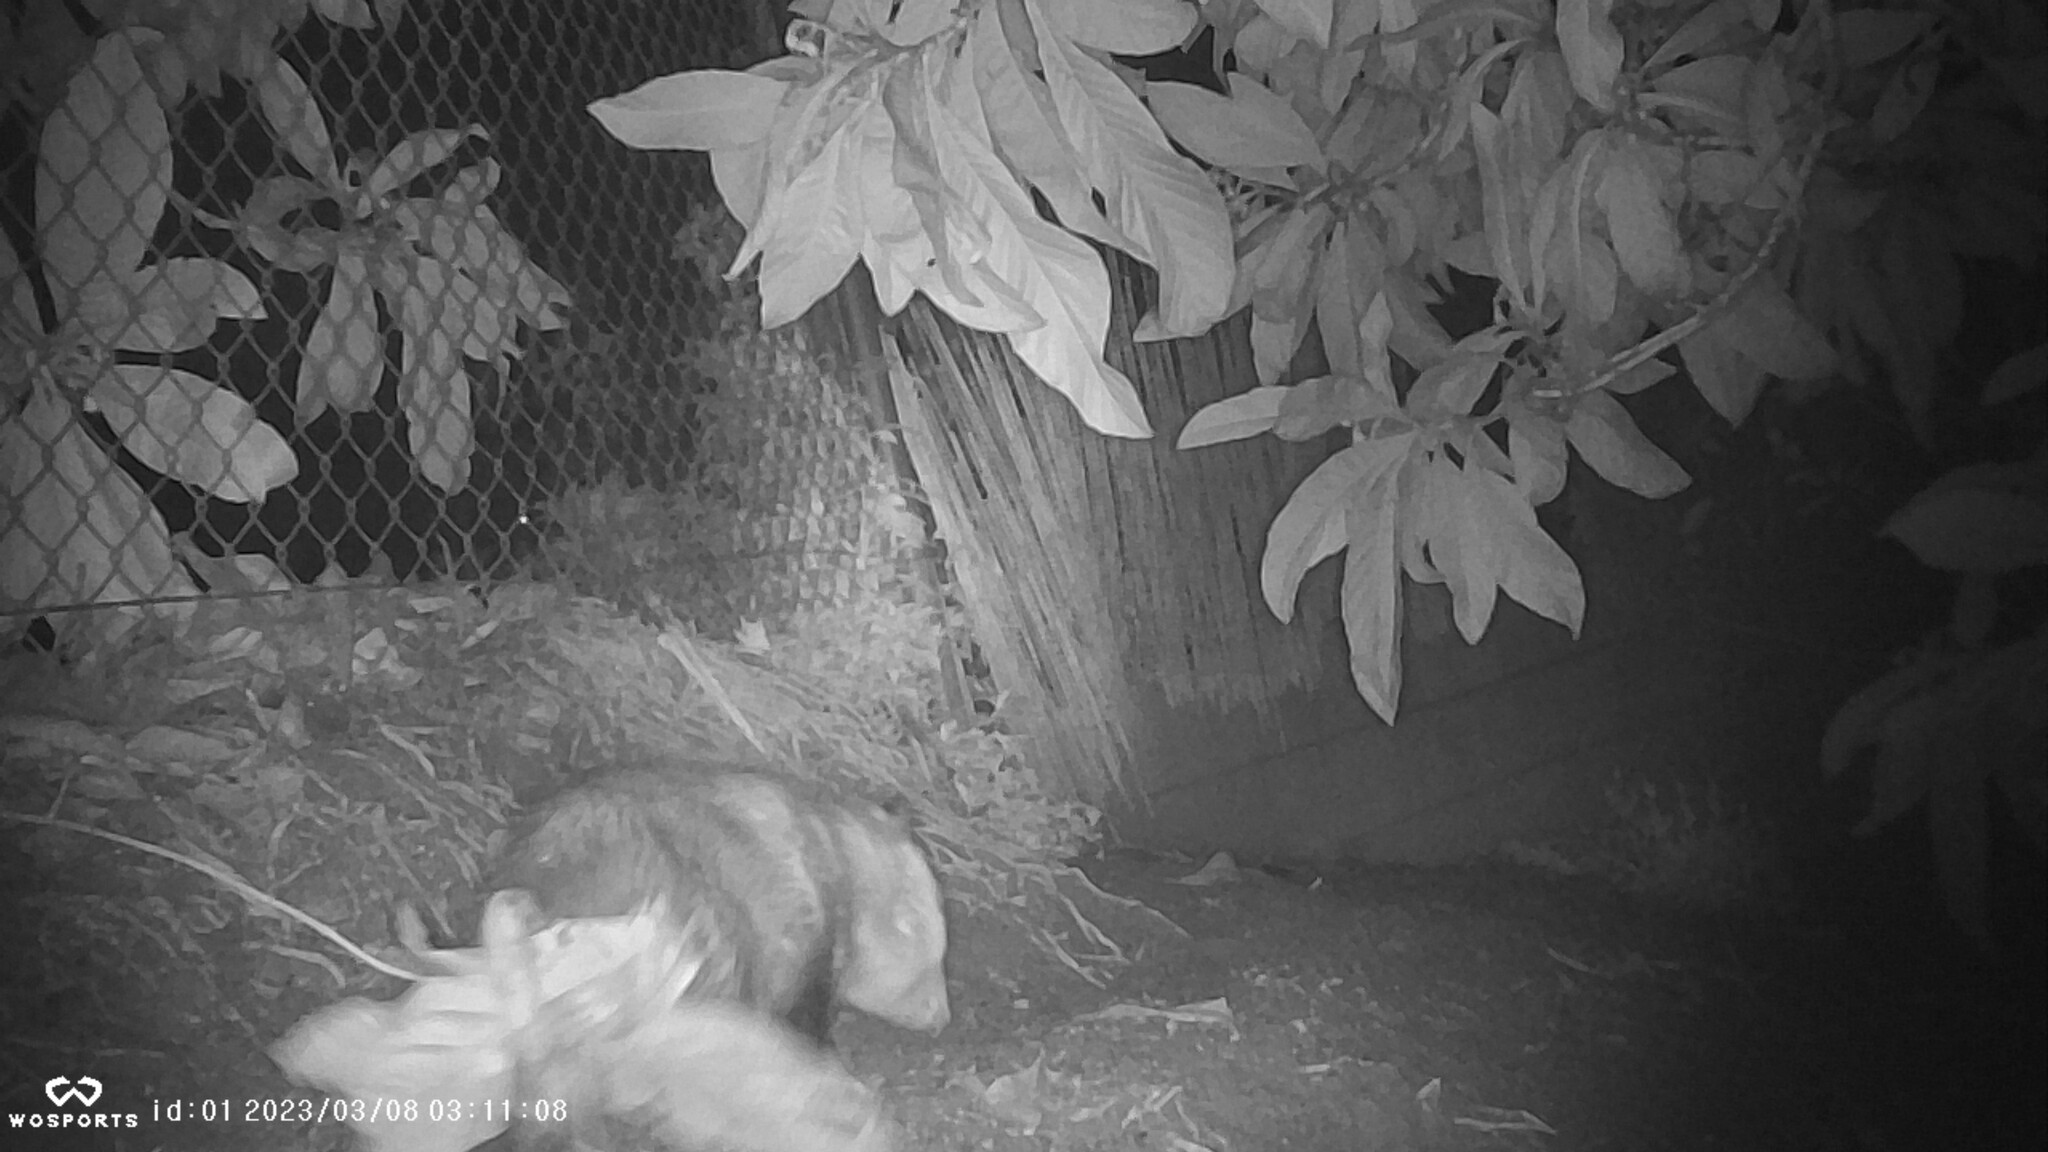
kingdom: Animalia
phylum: Chordata
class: Mammalia
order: Didelphimorphia
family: Didelphidae
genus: Didelphis
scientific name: Didelphis virginiana
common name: Virginia opossum
